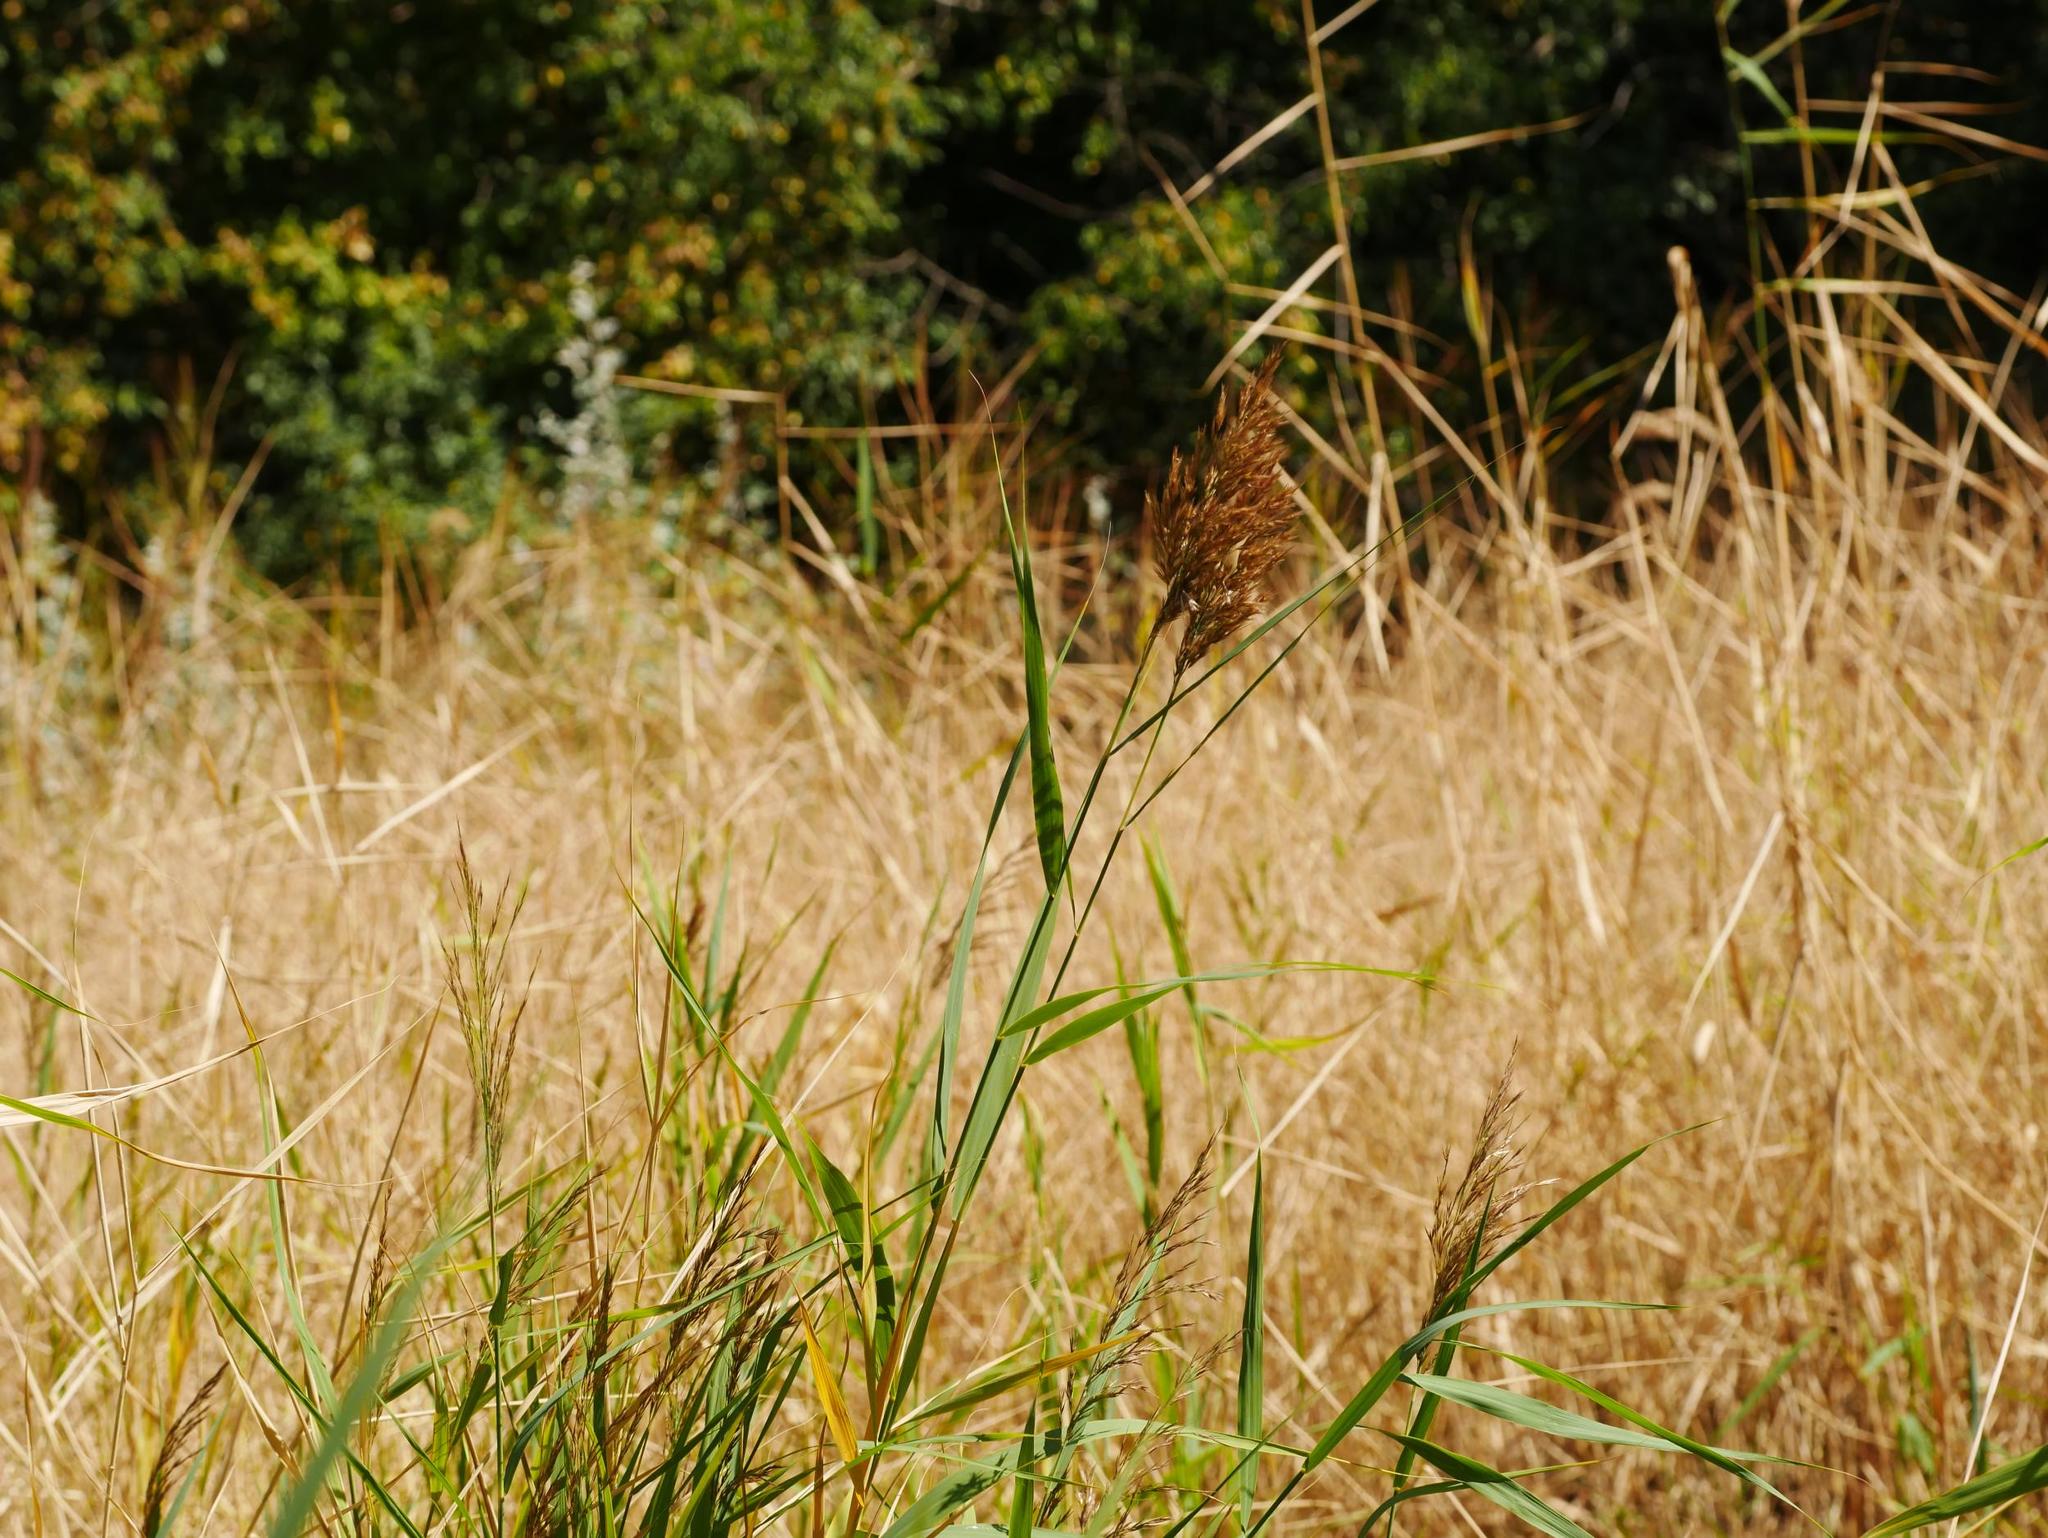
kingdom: Plantae
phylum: Tracheophyta
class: Liliopsida
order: Poales
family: Poaceae
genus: Phragmites
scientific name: Phragmites australis
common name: Common reed
